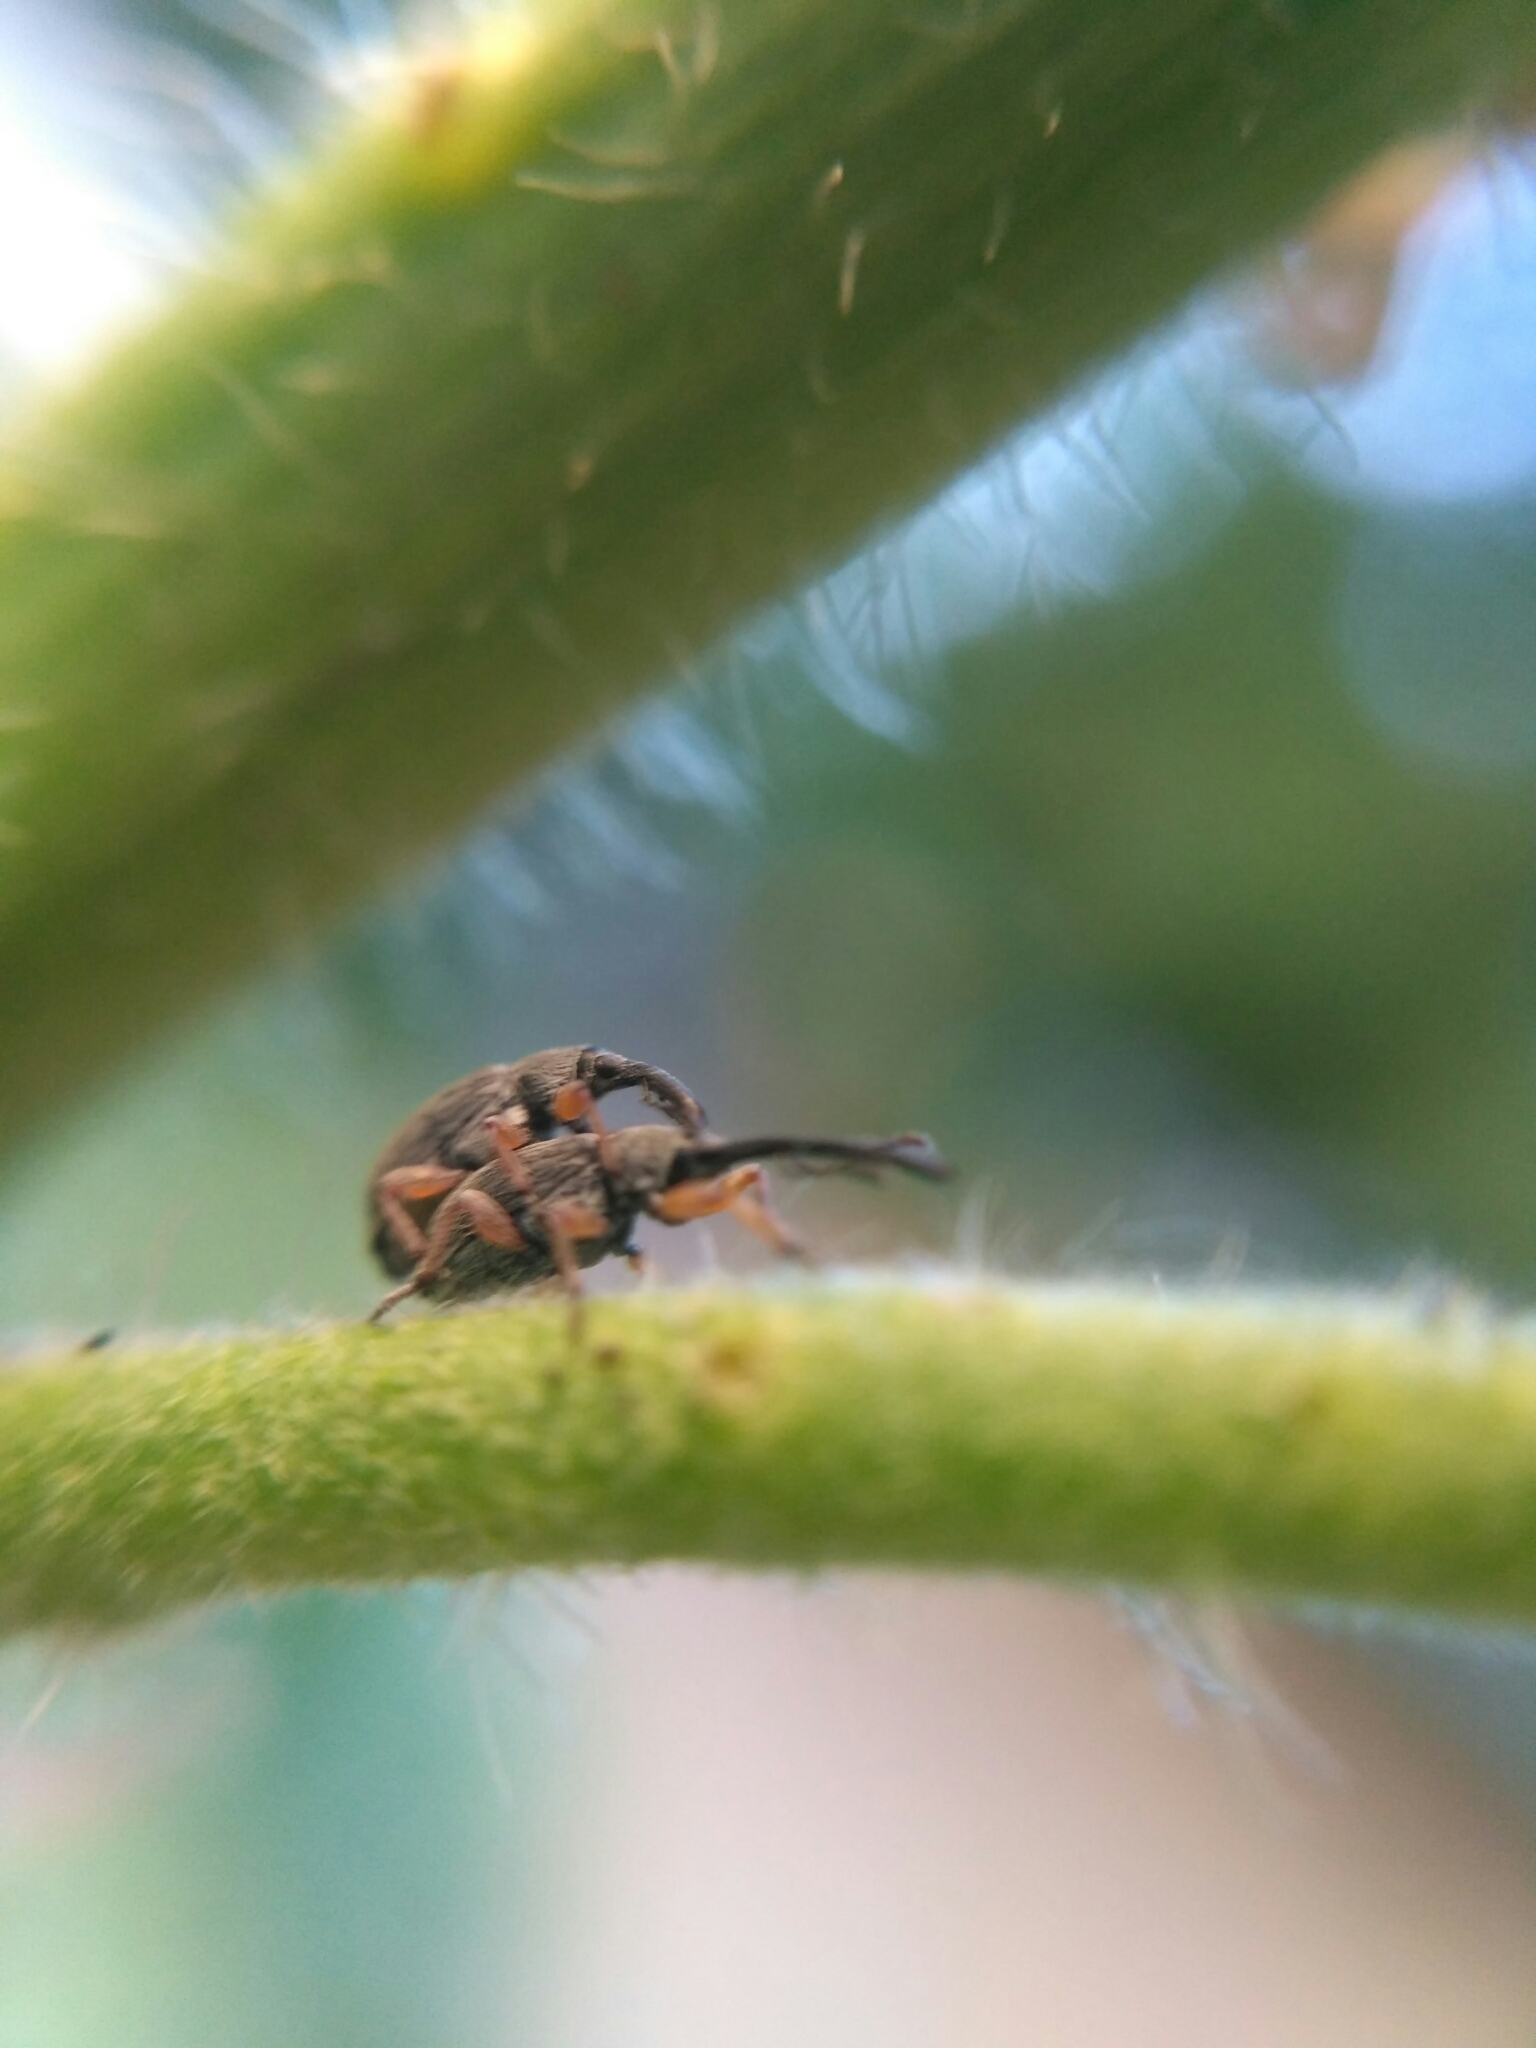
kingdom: Animalia
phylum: Arthropoda
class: Insecta
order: Coleoptera
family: Brentidae
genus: Rhopalapion
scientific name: Rhopalapion longirostre
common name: Hollyhock weevil
